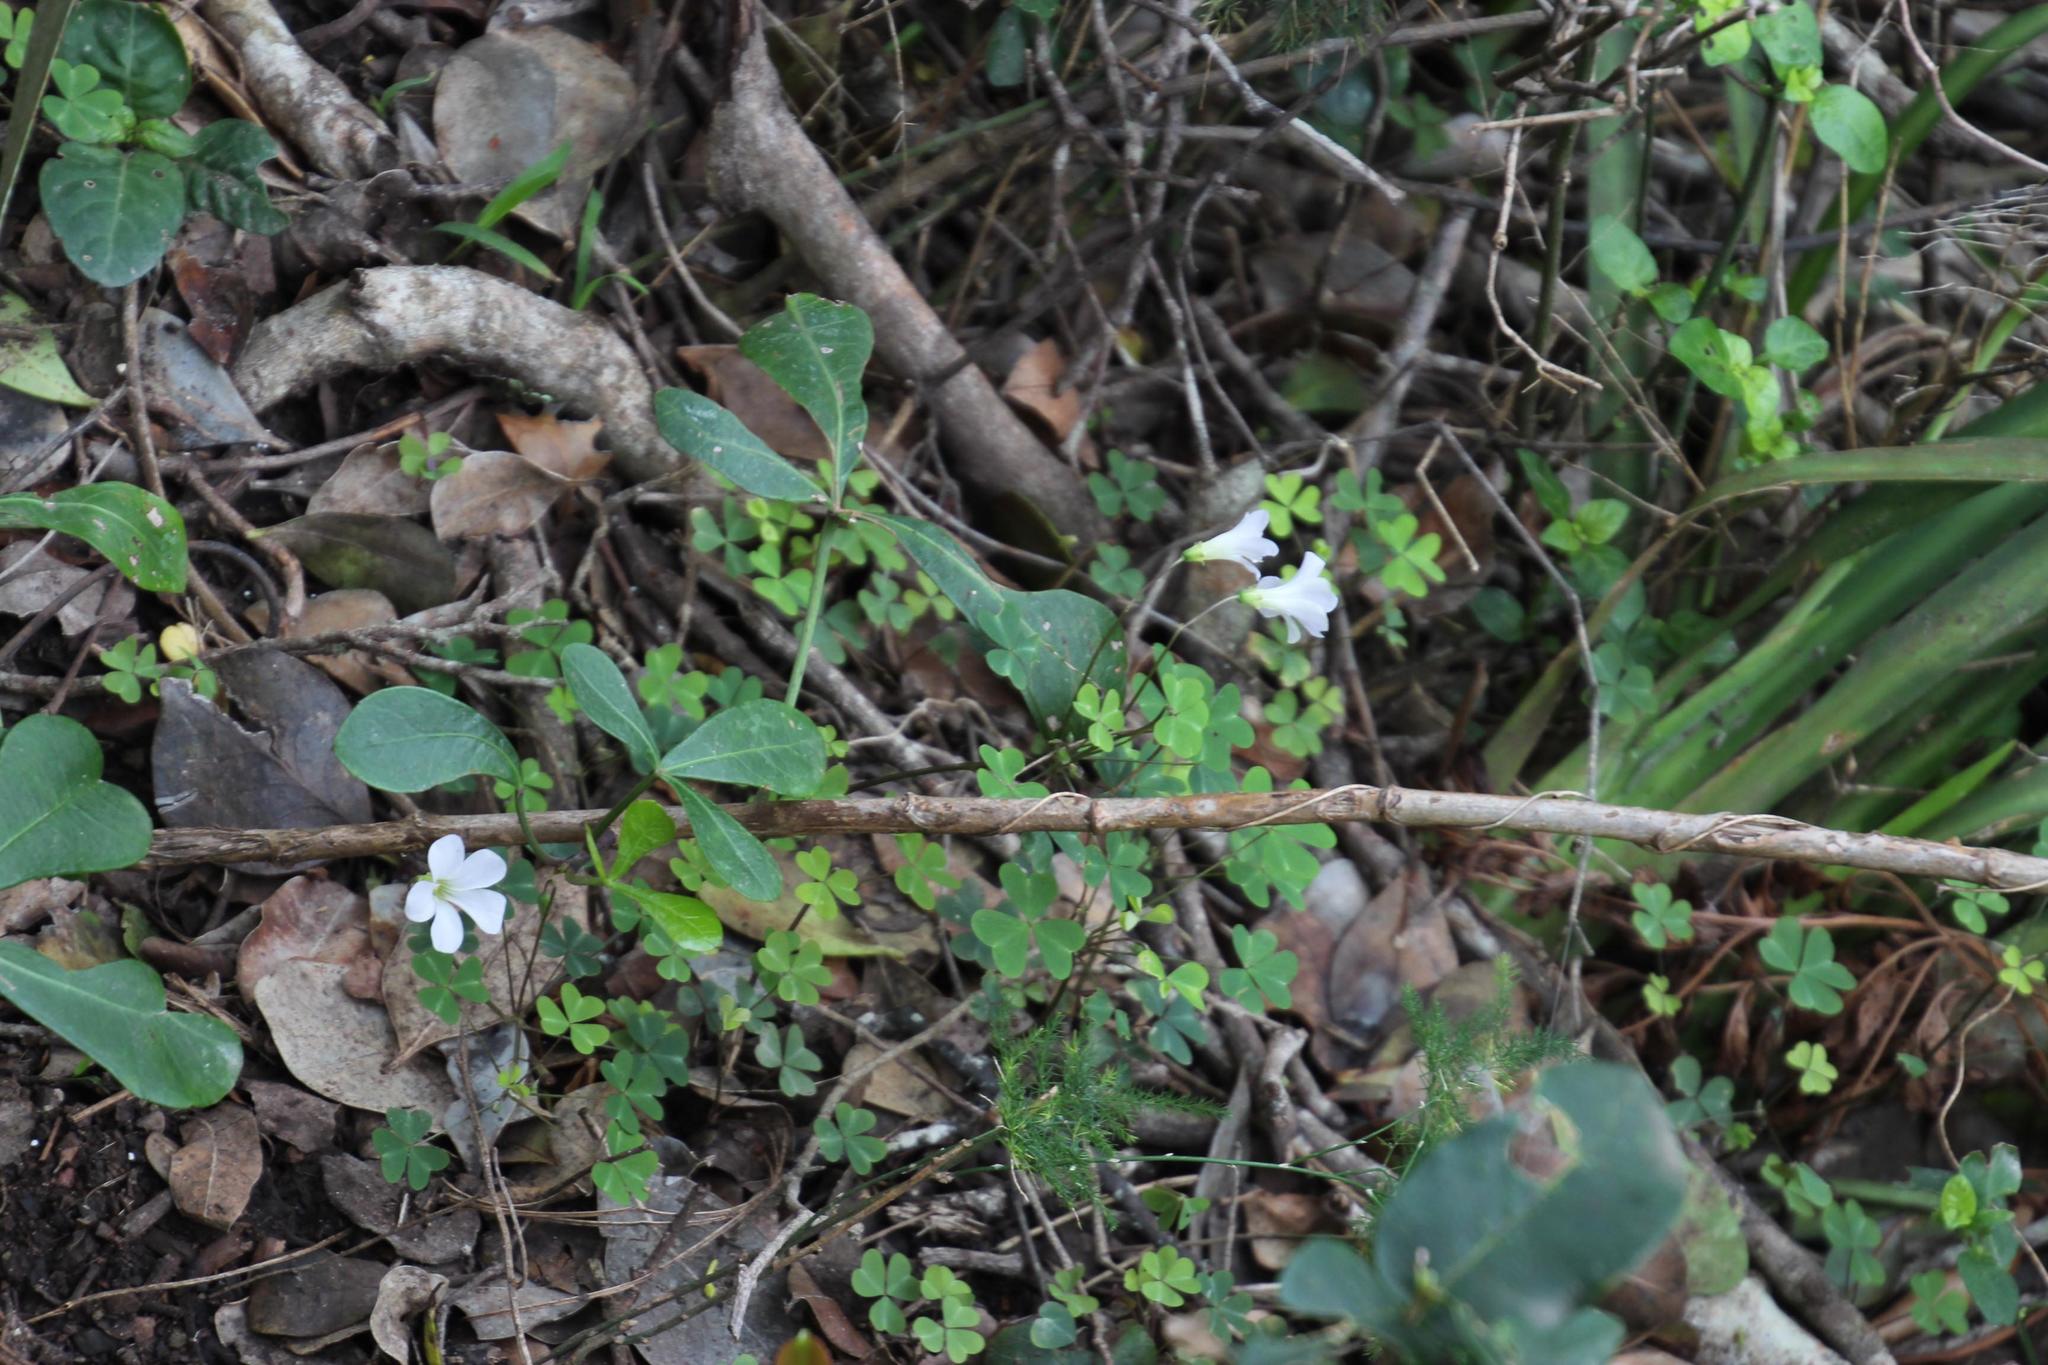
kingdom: Plantae
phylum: Tracheophyta
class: Magnoliopsida
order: Oxalidales
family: Oxalidaceae
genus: Oxalis
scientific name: Oxalis incarnata
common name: Pale pink-sorrel
